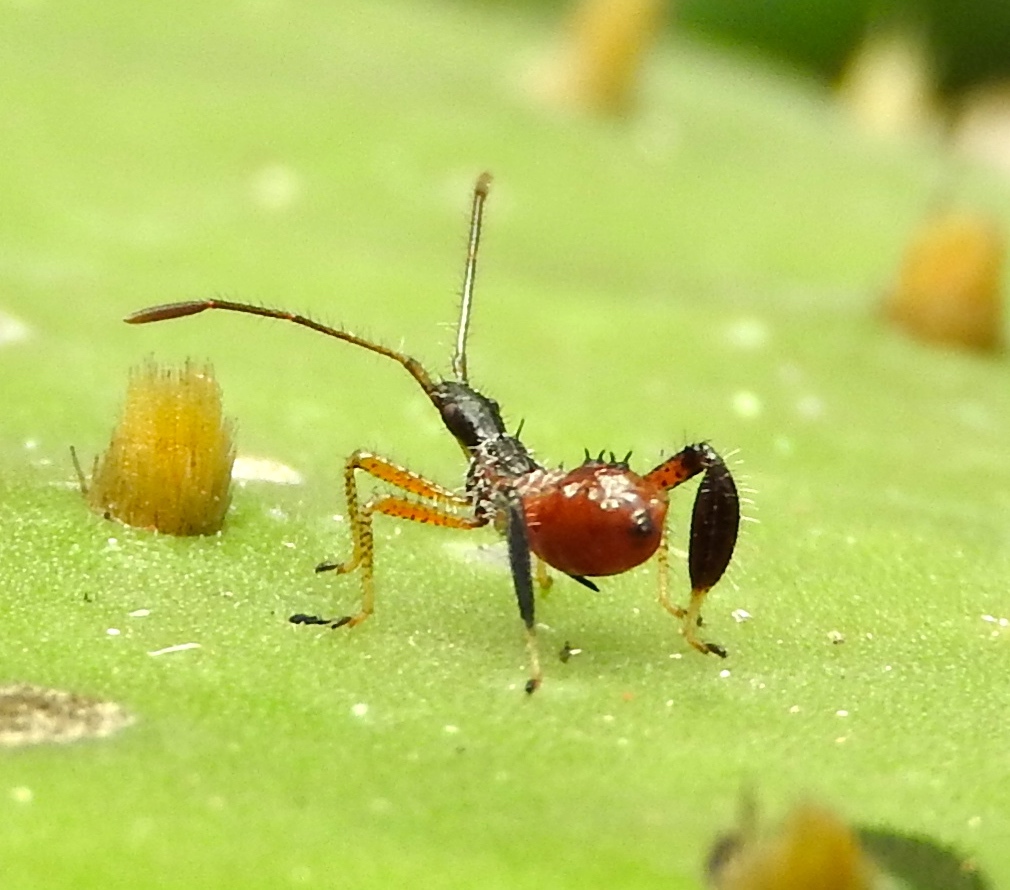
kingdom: Animalia
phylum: Arthropoda
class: Insecta
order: Hemiptera
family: Coreidae
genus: Narnia
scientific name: Narnia
